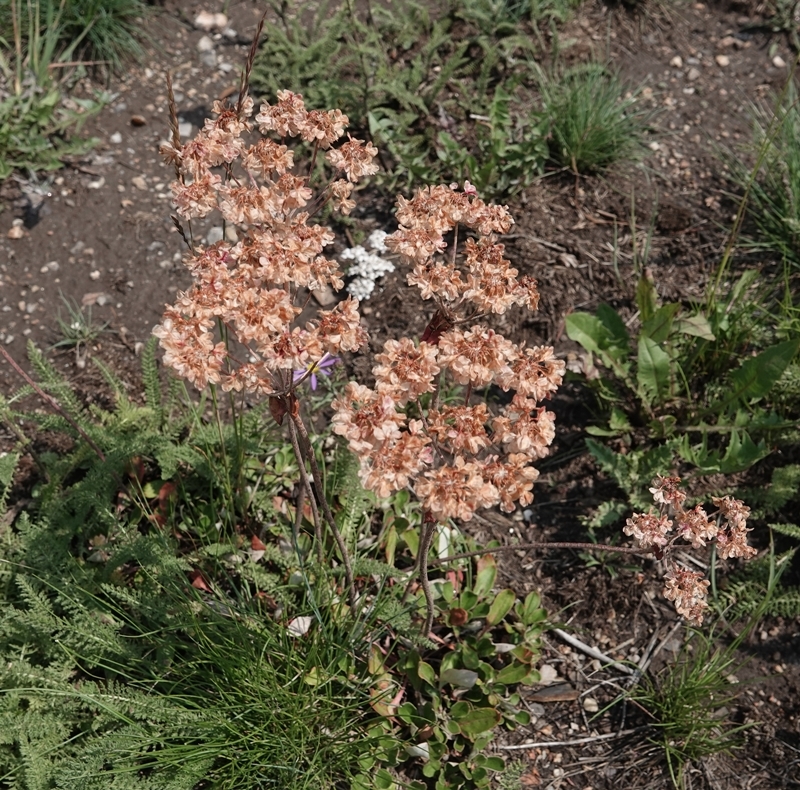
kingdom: Plantae
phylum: Tracheophyta
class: Magnoliopsida
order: Caryophyllales
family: Polygonaceae
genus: Eriogonum
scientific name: Eriogonum umbellatum
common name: Sulfur-buckwheat
